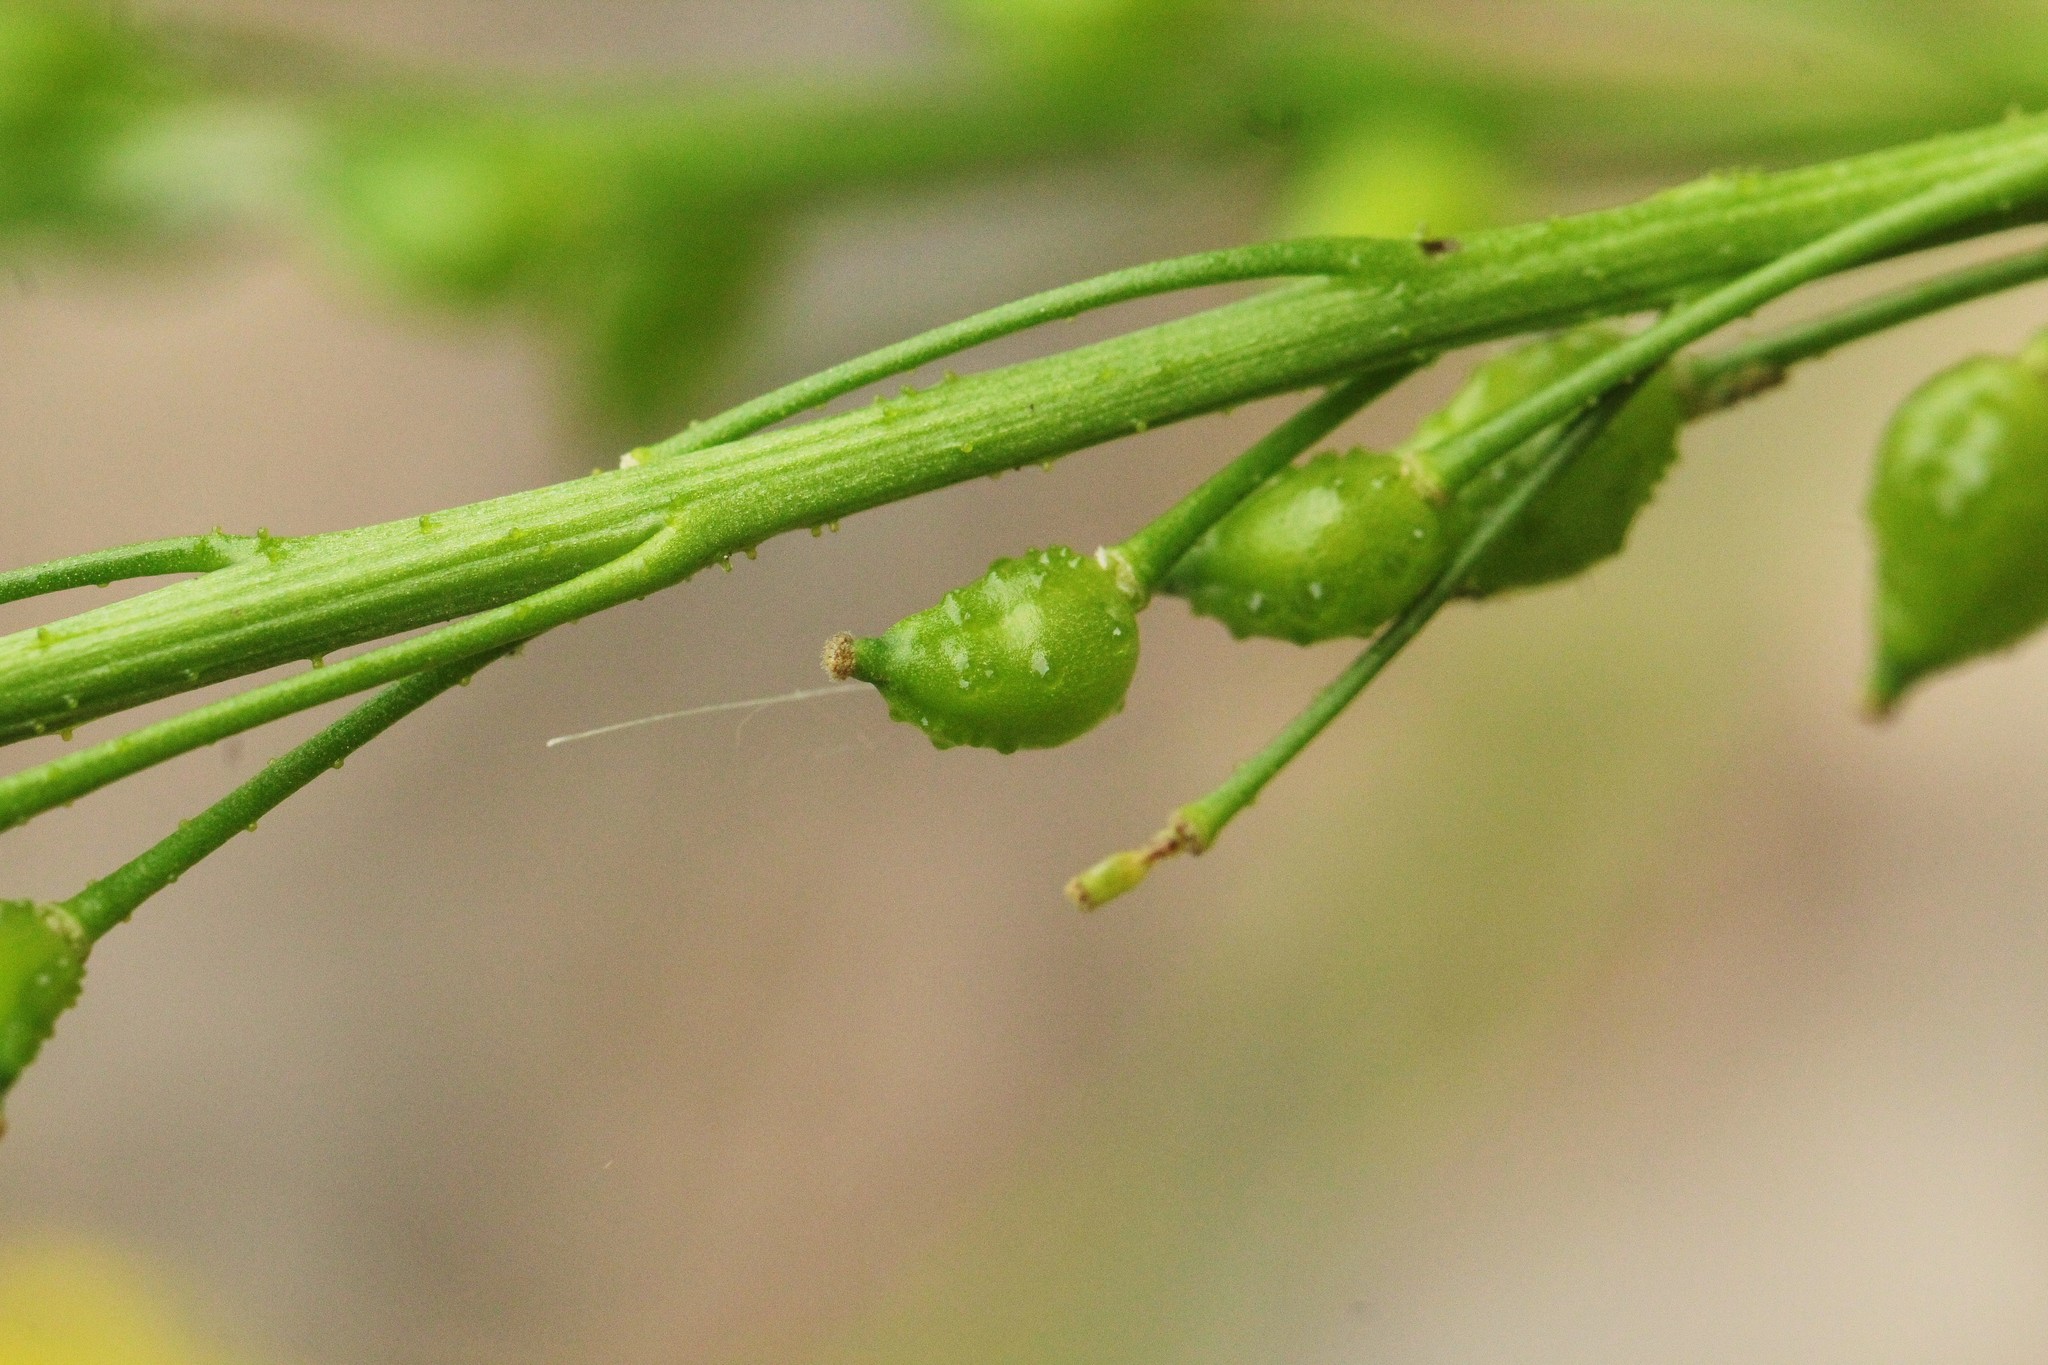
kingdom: Plantae
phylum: Tracheophyta
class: Magnoliopsida
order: Brassicales
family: Brassicaceae
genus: Bunias
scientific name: Bunias orientalis
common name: Warty-cabbage
